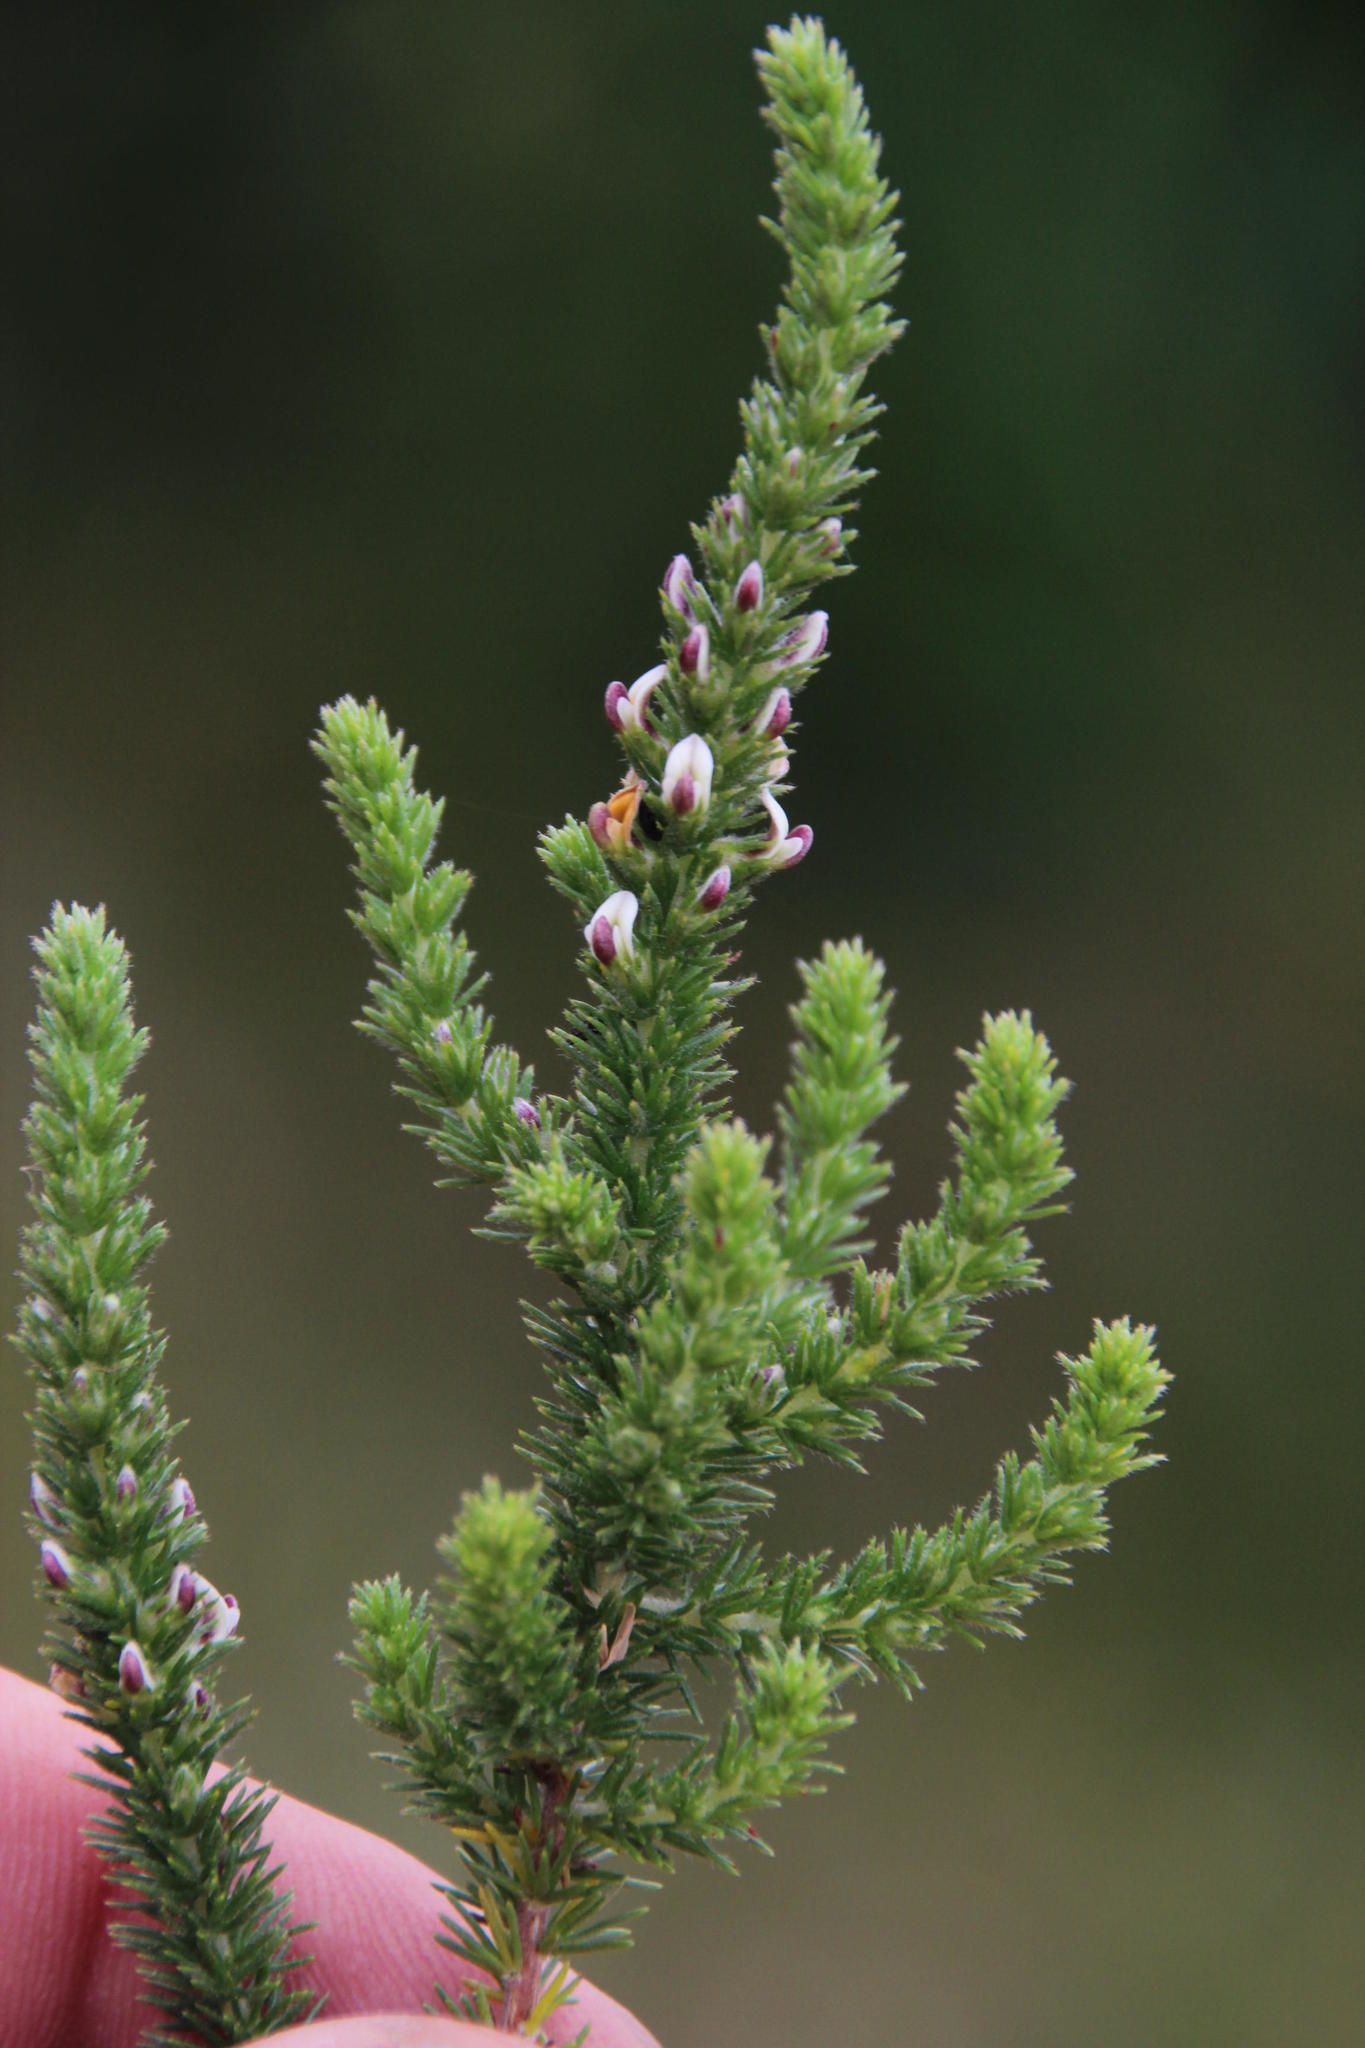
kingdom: Plantae
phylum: Tracheophyta
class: Magnoliopsida
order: Fabales
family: Fabaceae
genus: Aspalathus
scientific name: Aspalathus hispida
